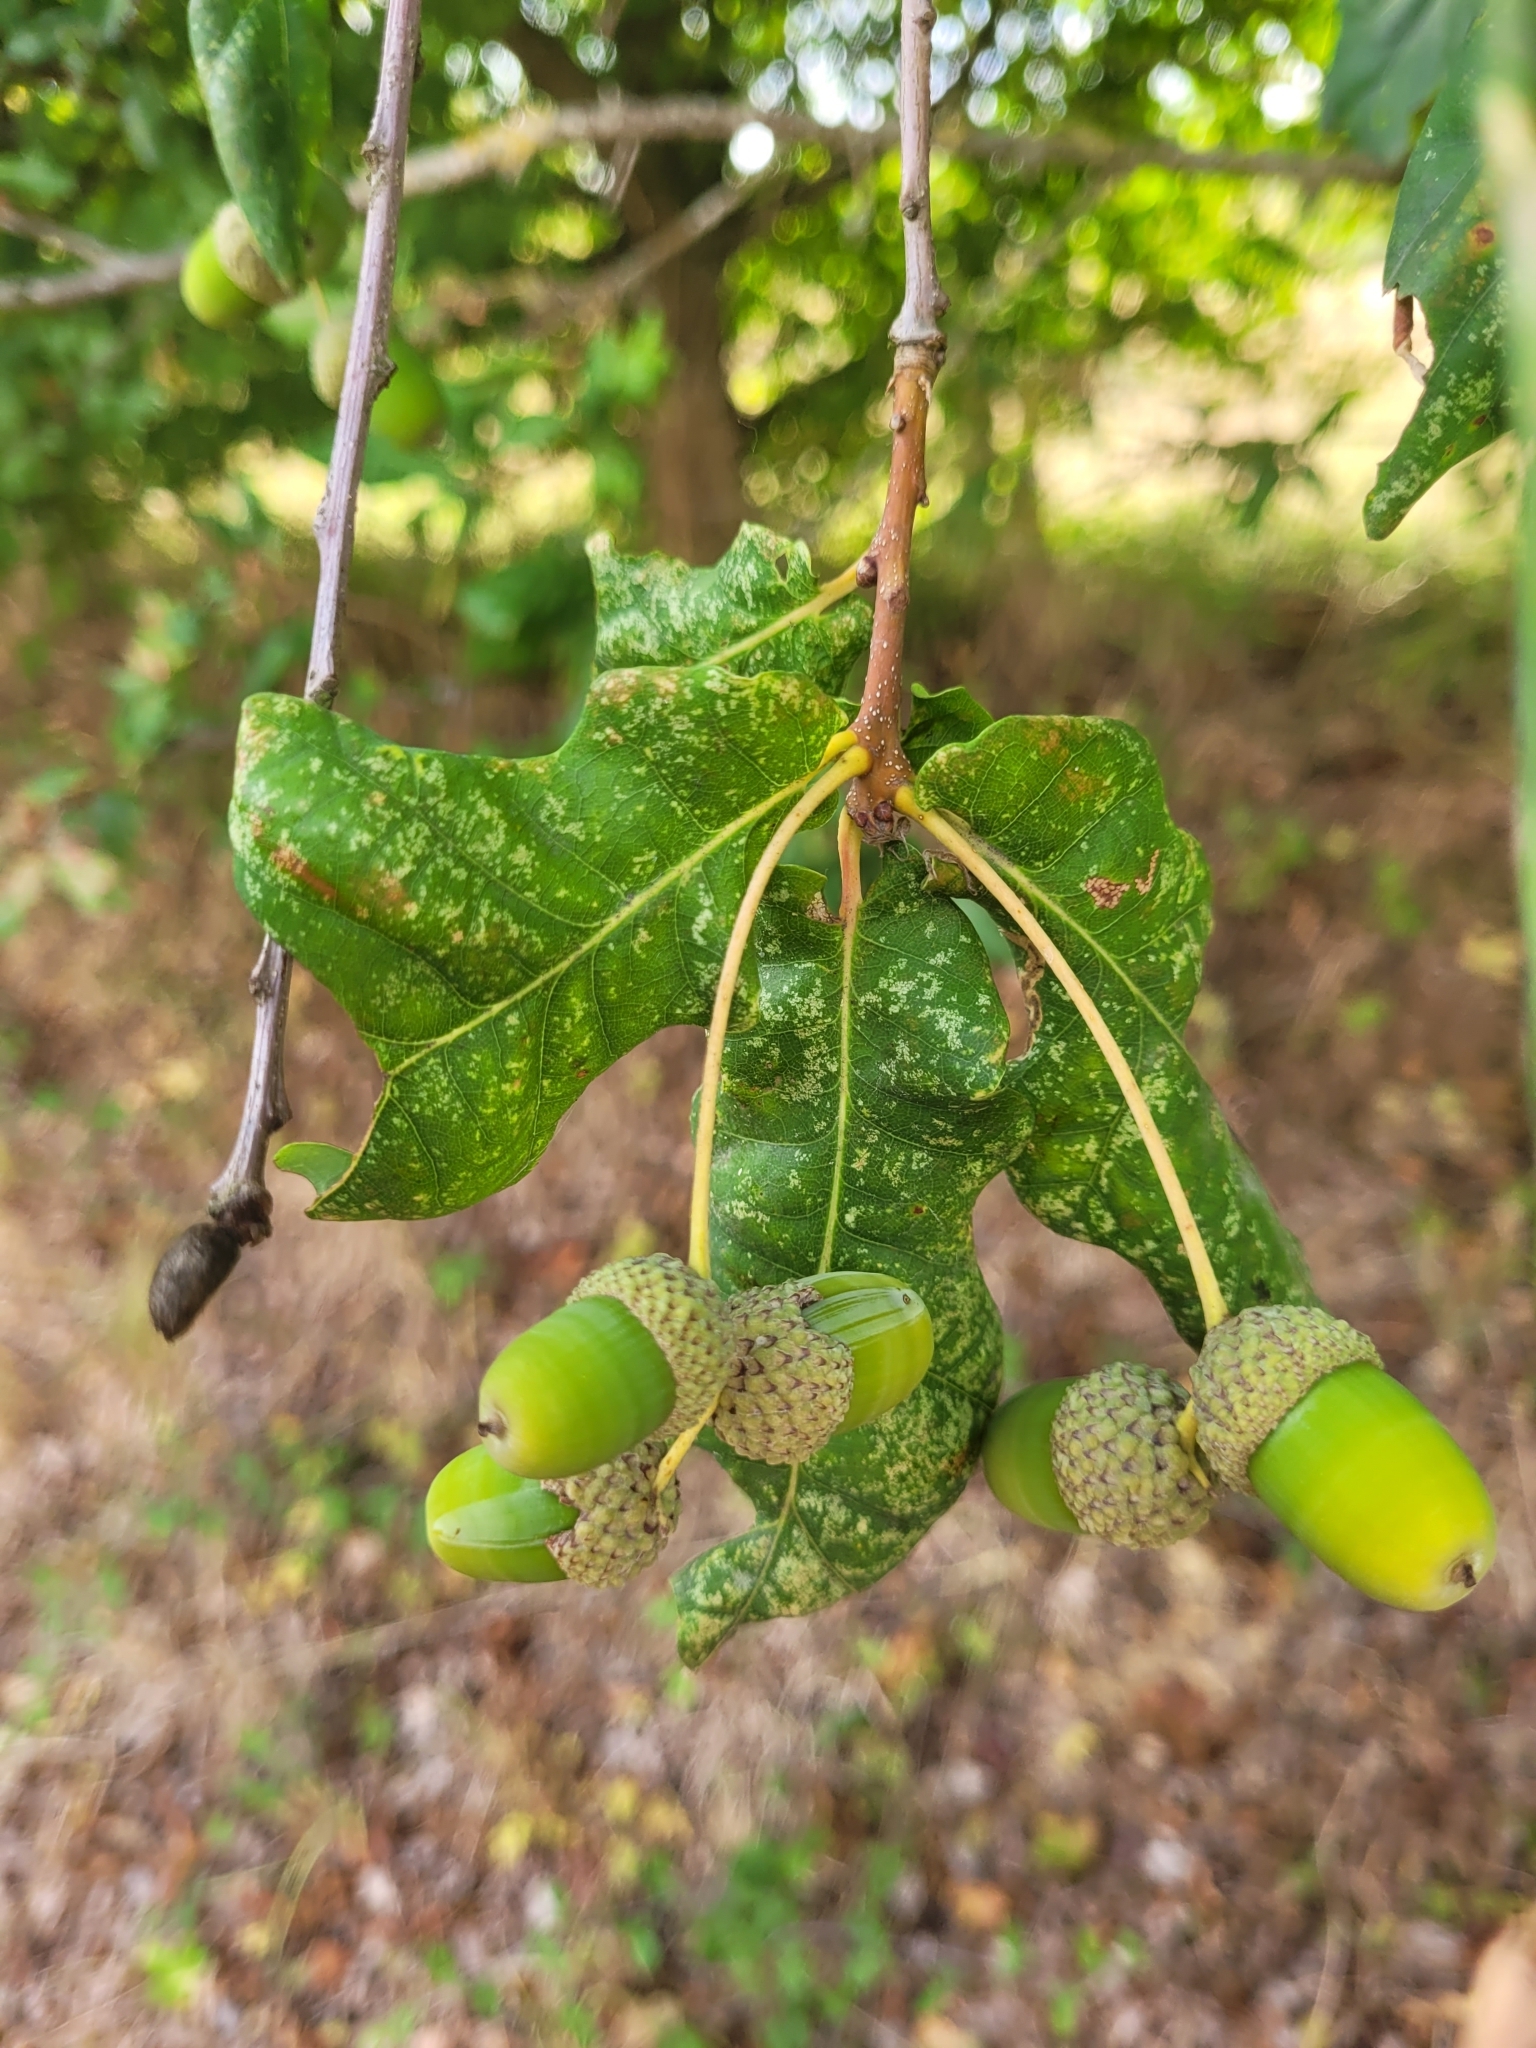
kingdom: Plantae
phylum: Tracheophyta
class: Magnoliopsida
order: Fagales
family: Fagaceae
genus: Quercus
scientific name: Quercus robur
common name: Pedunculate oak
